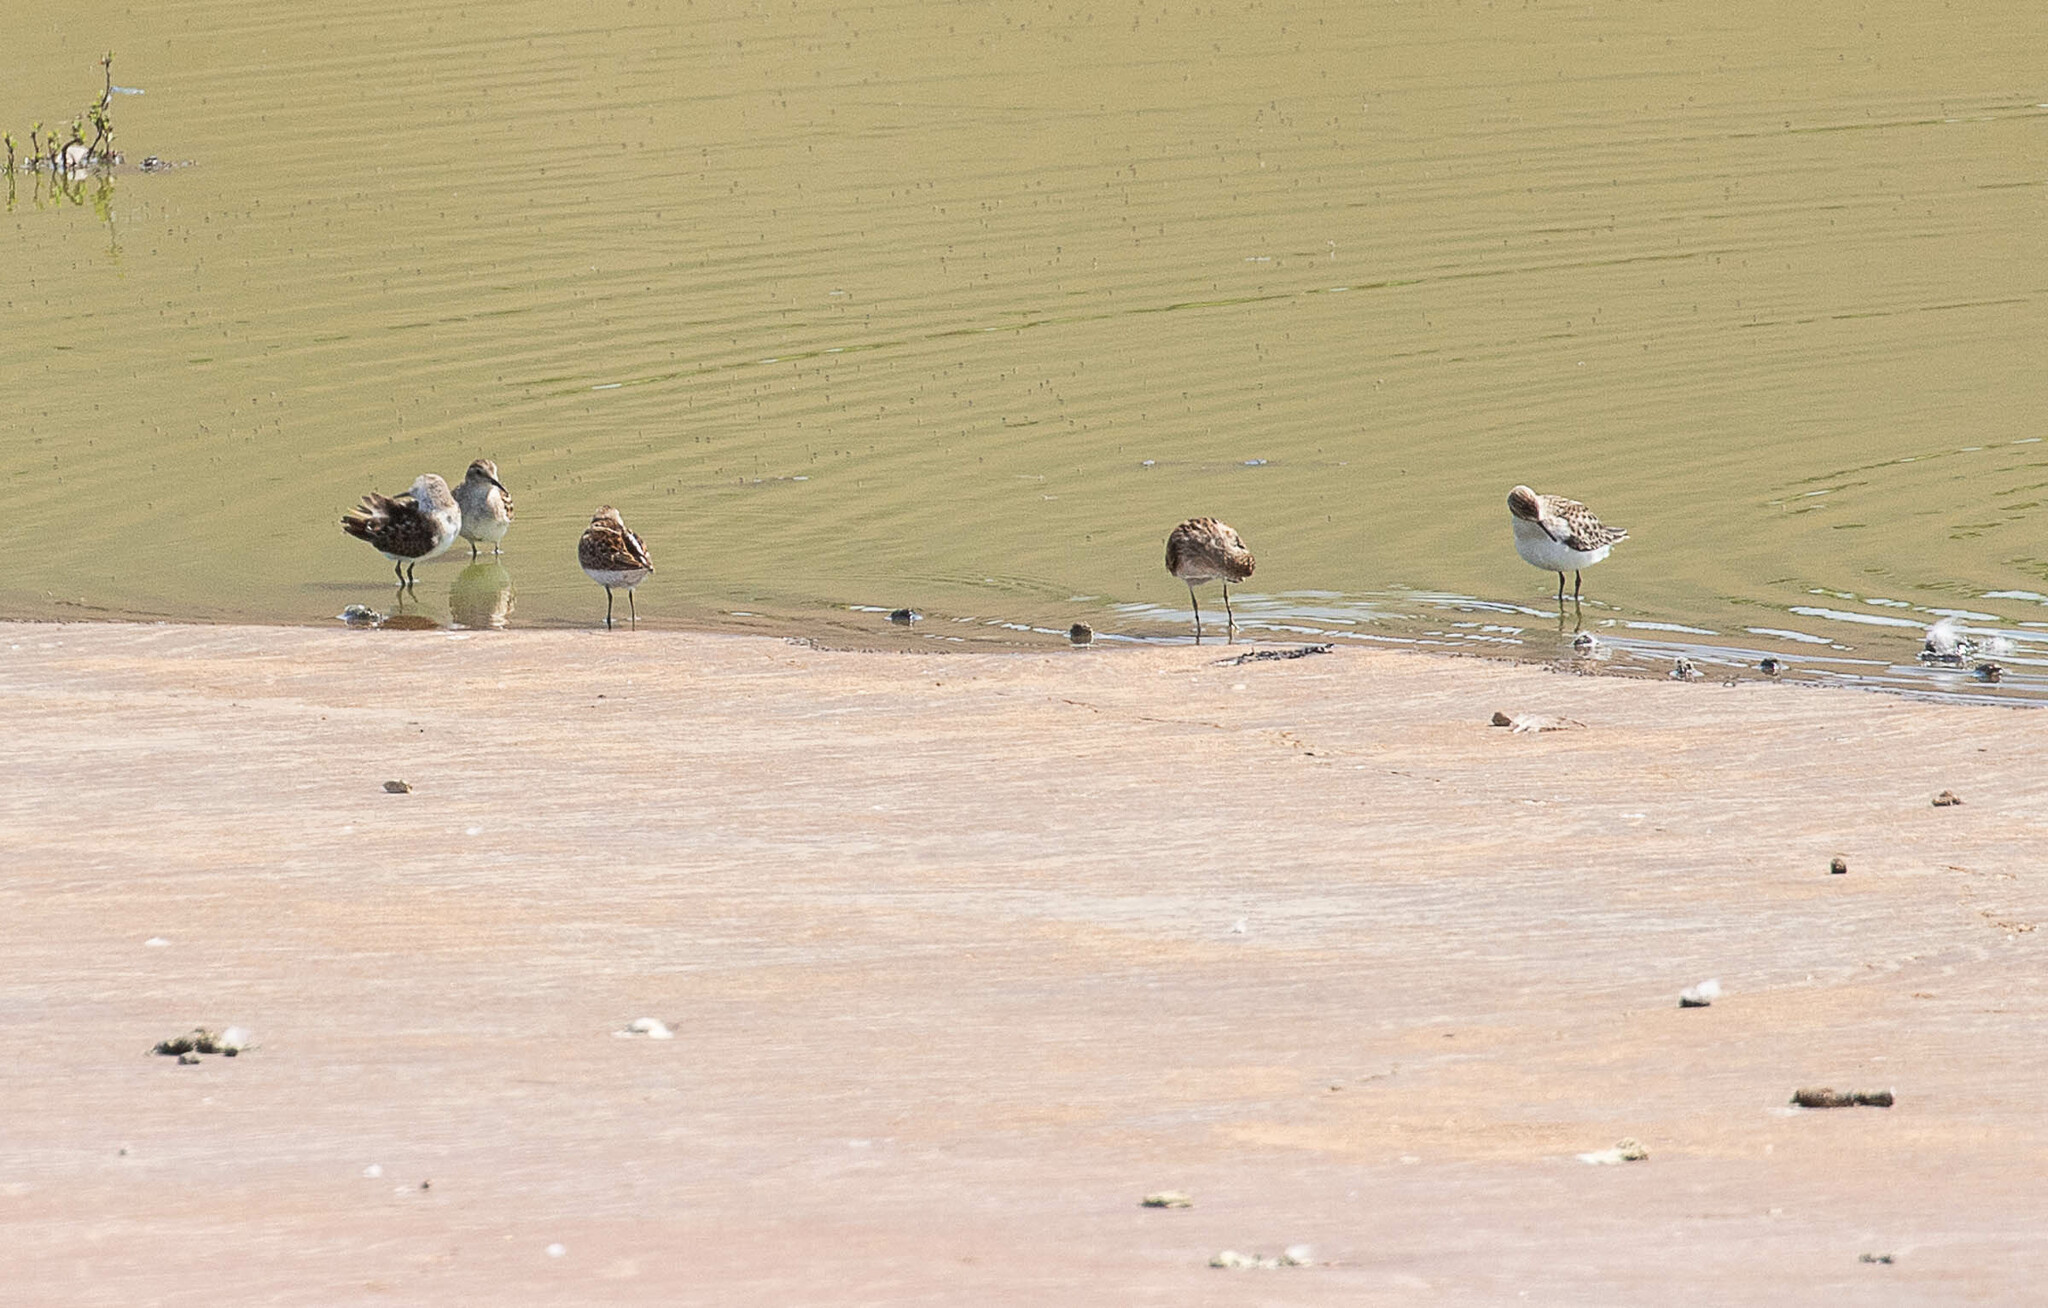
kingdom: Animalia
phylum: Chordata
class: Aves
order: Charadriiformes
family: Scolopacidae
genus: Calidris
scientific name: Calidris minutilla
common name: Least sandpiper
